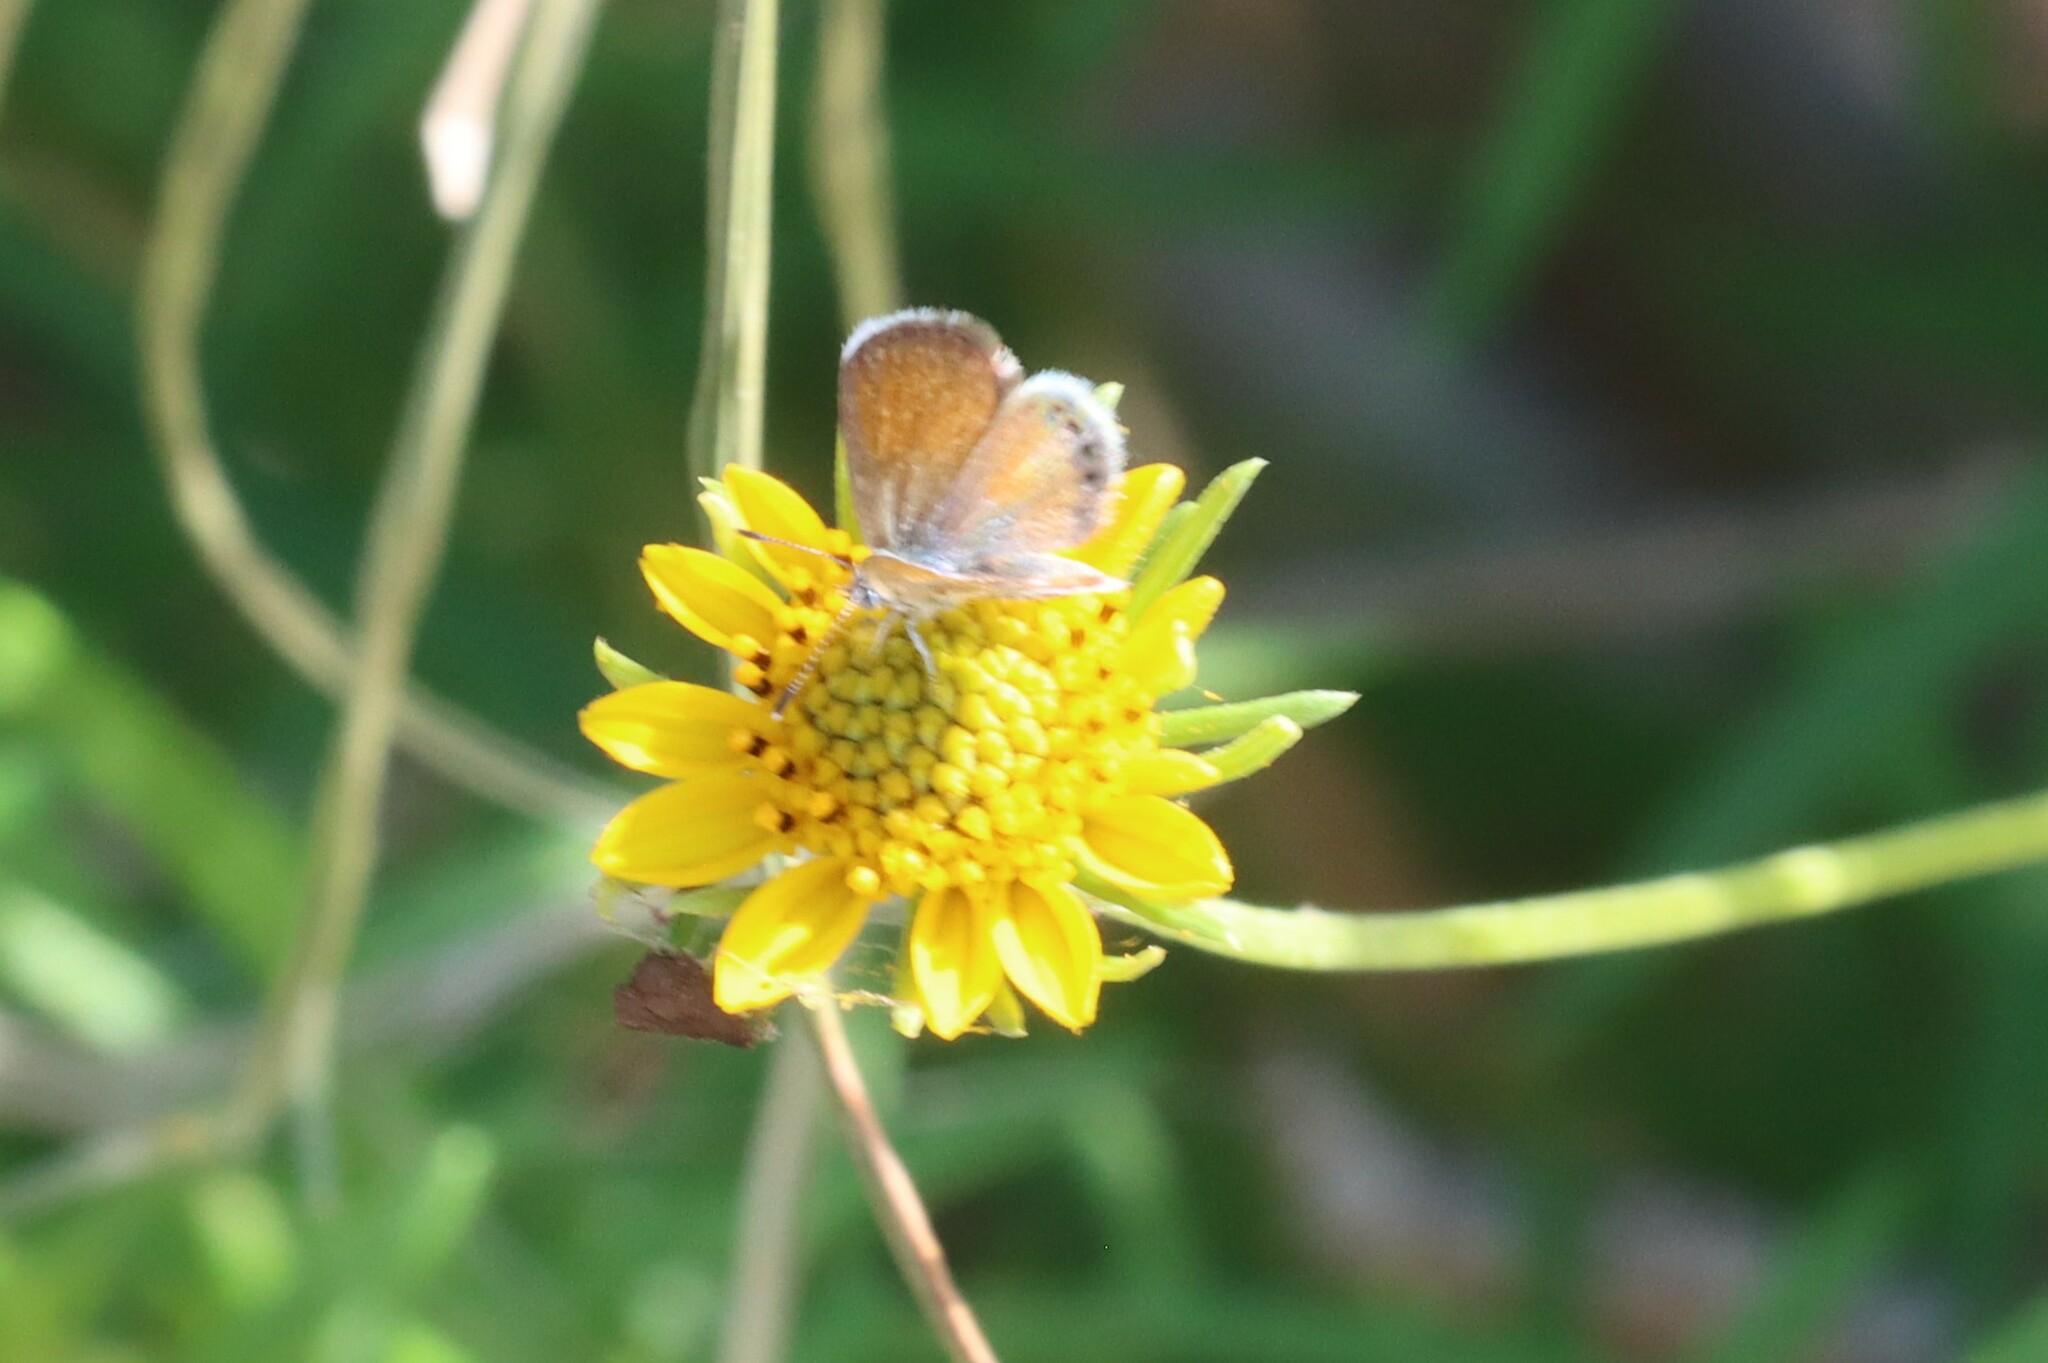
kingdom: Animalia
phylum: Arthropoda
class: Insecta
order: Lepidoptera
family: Lycaenidae
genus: Brephidium
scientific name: Brephidium exilis
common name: Pygmy blue
